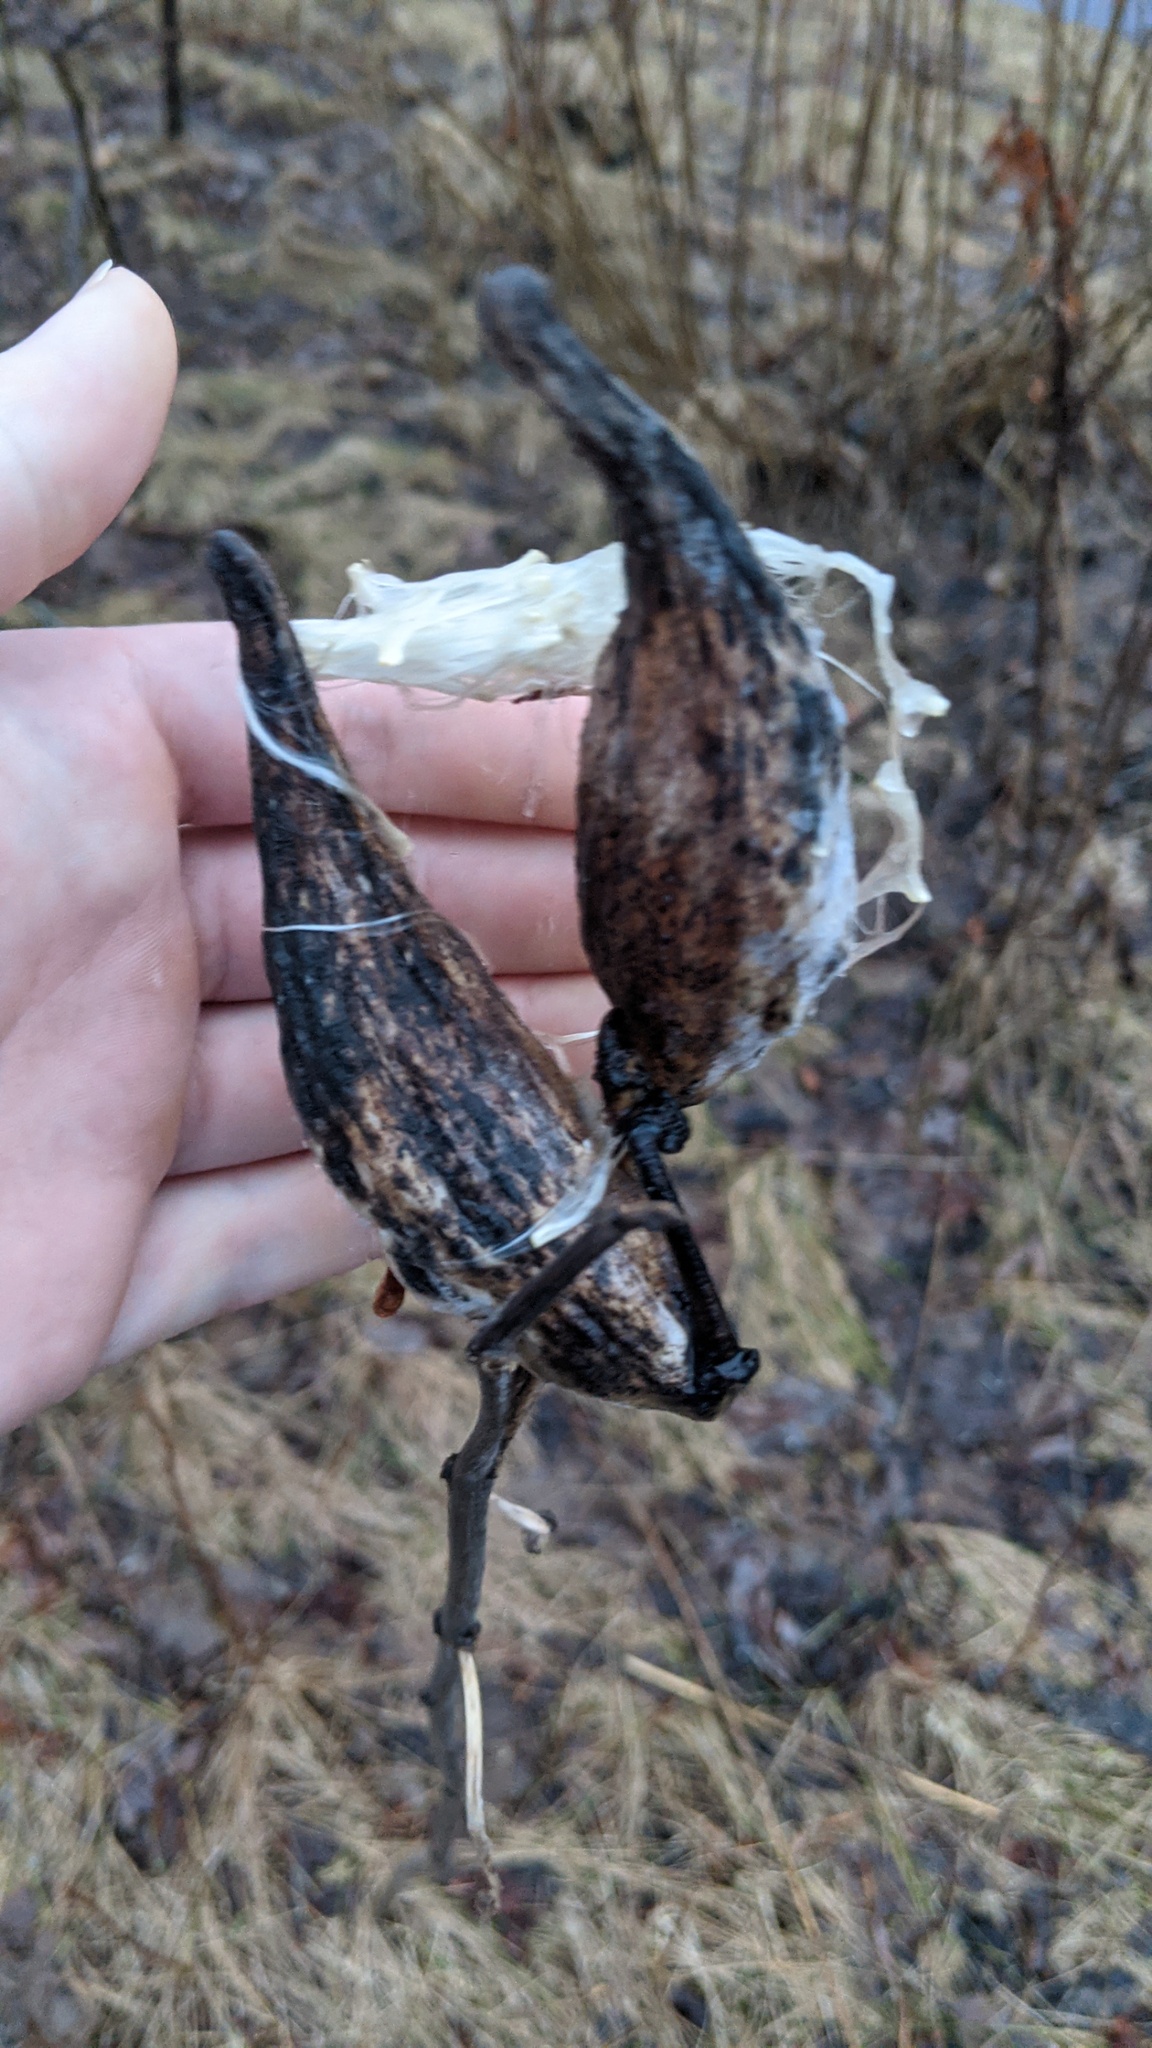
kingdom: Plantae
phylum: Tracheophyta
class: Magnoliopsida
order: Gentianales
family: Apocynaceae
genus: Asclepias
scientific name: Asclepias syriaca
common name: Common milkweed
